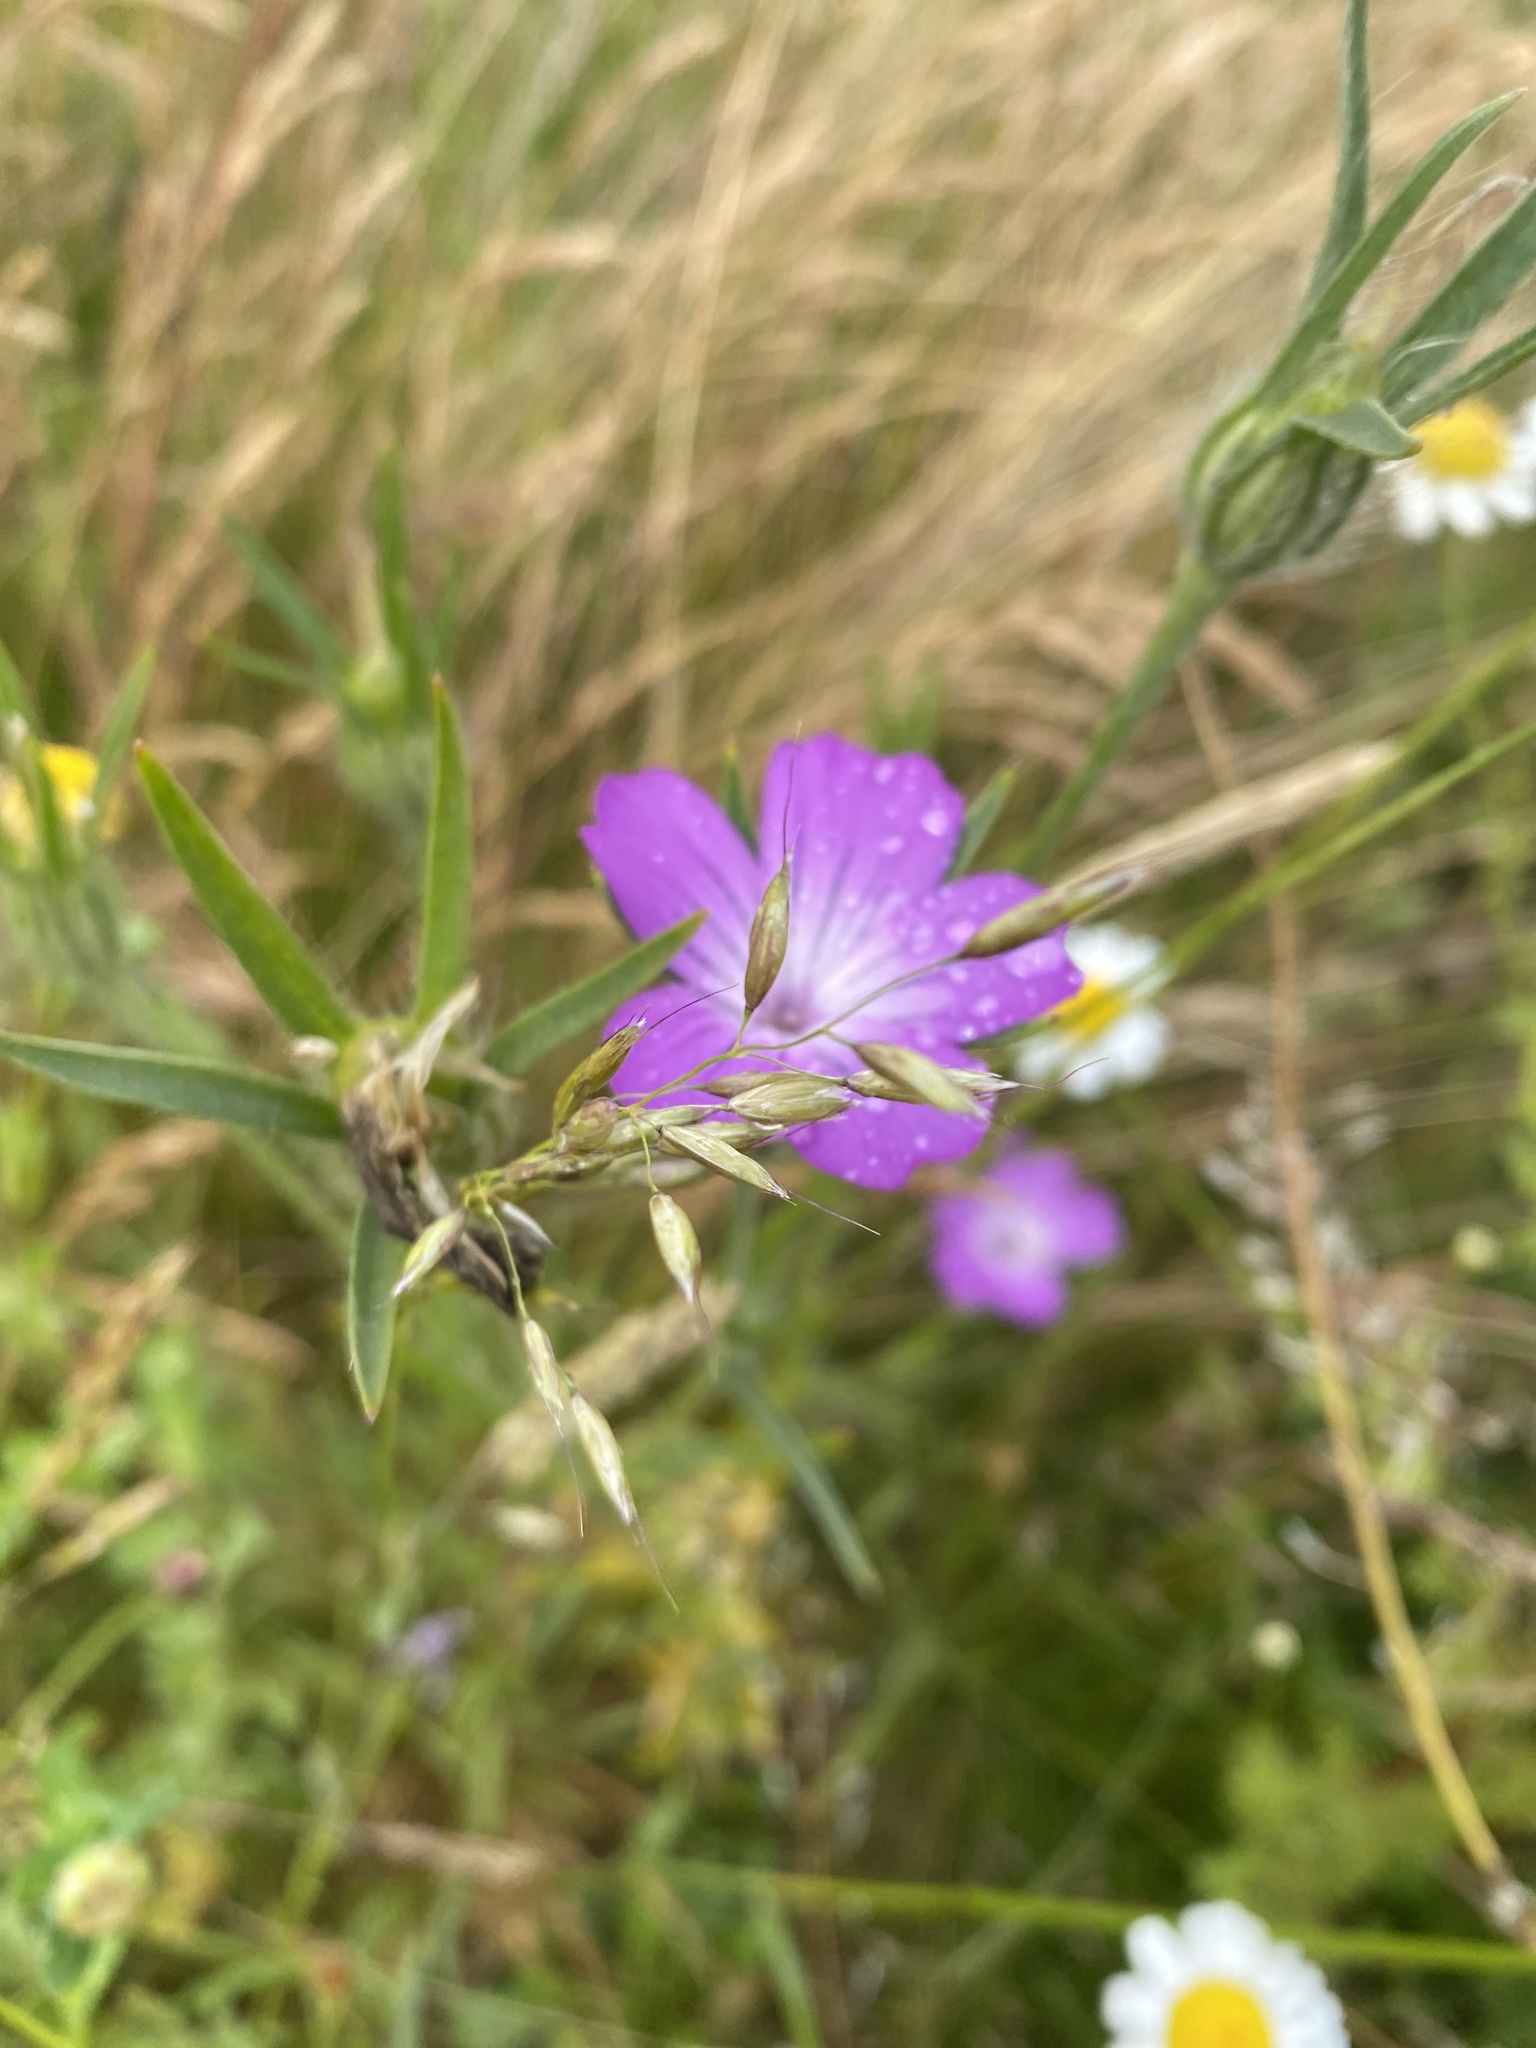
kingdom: Plantae
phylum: Tracheophyta
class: Magnoliopsida
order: Caryophyllales
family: Caryophyllaceae
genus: Agrostemma
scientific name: Agrostemma githago
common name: Common corncockle
